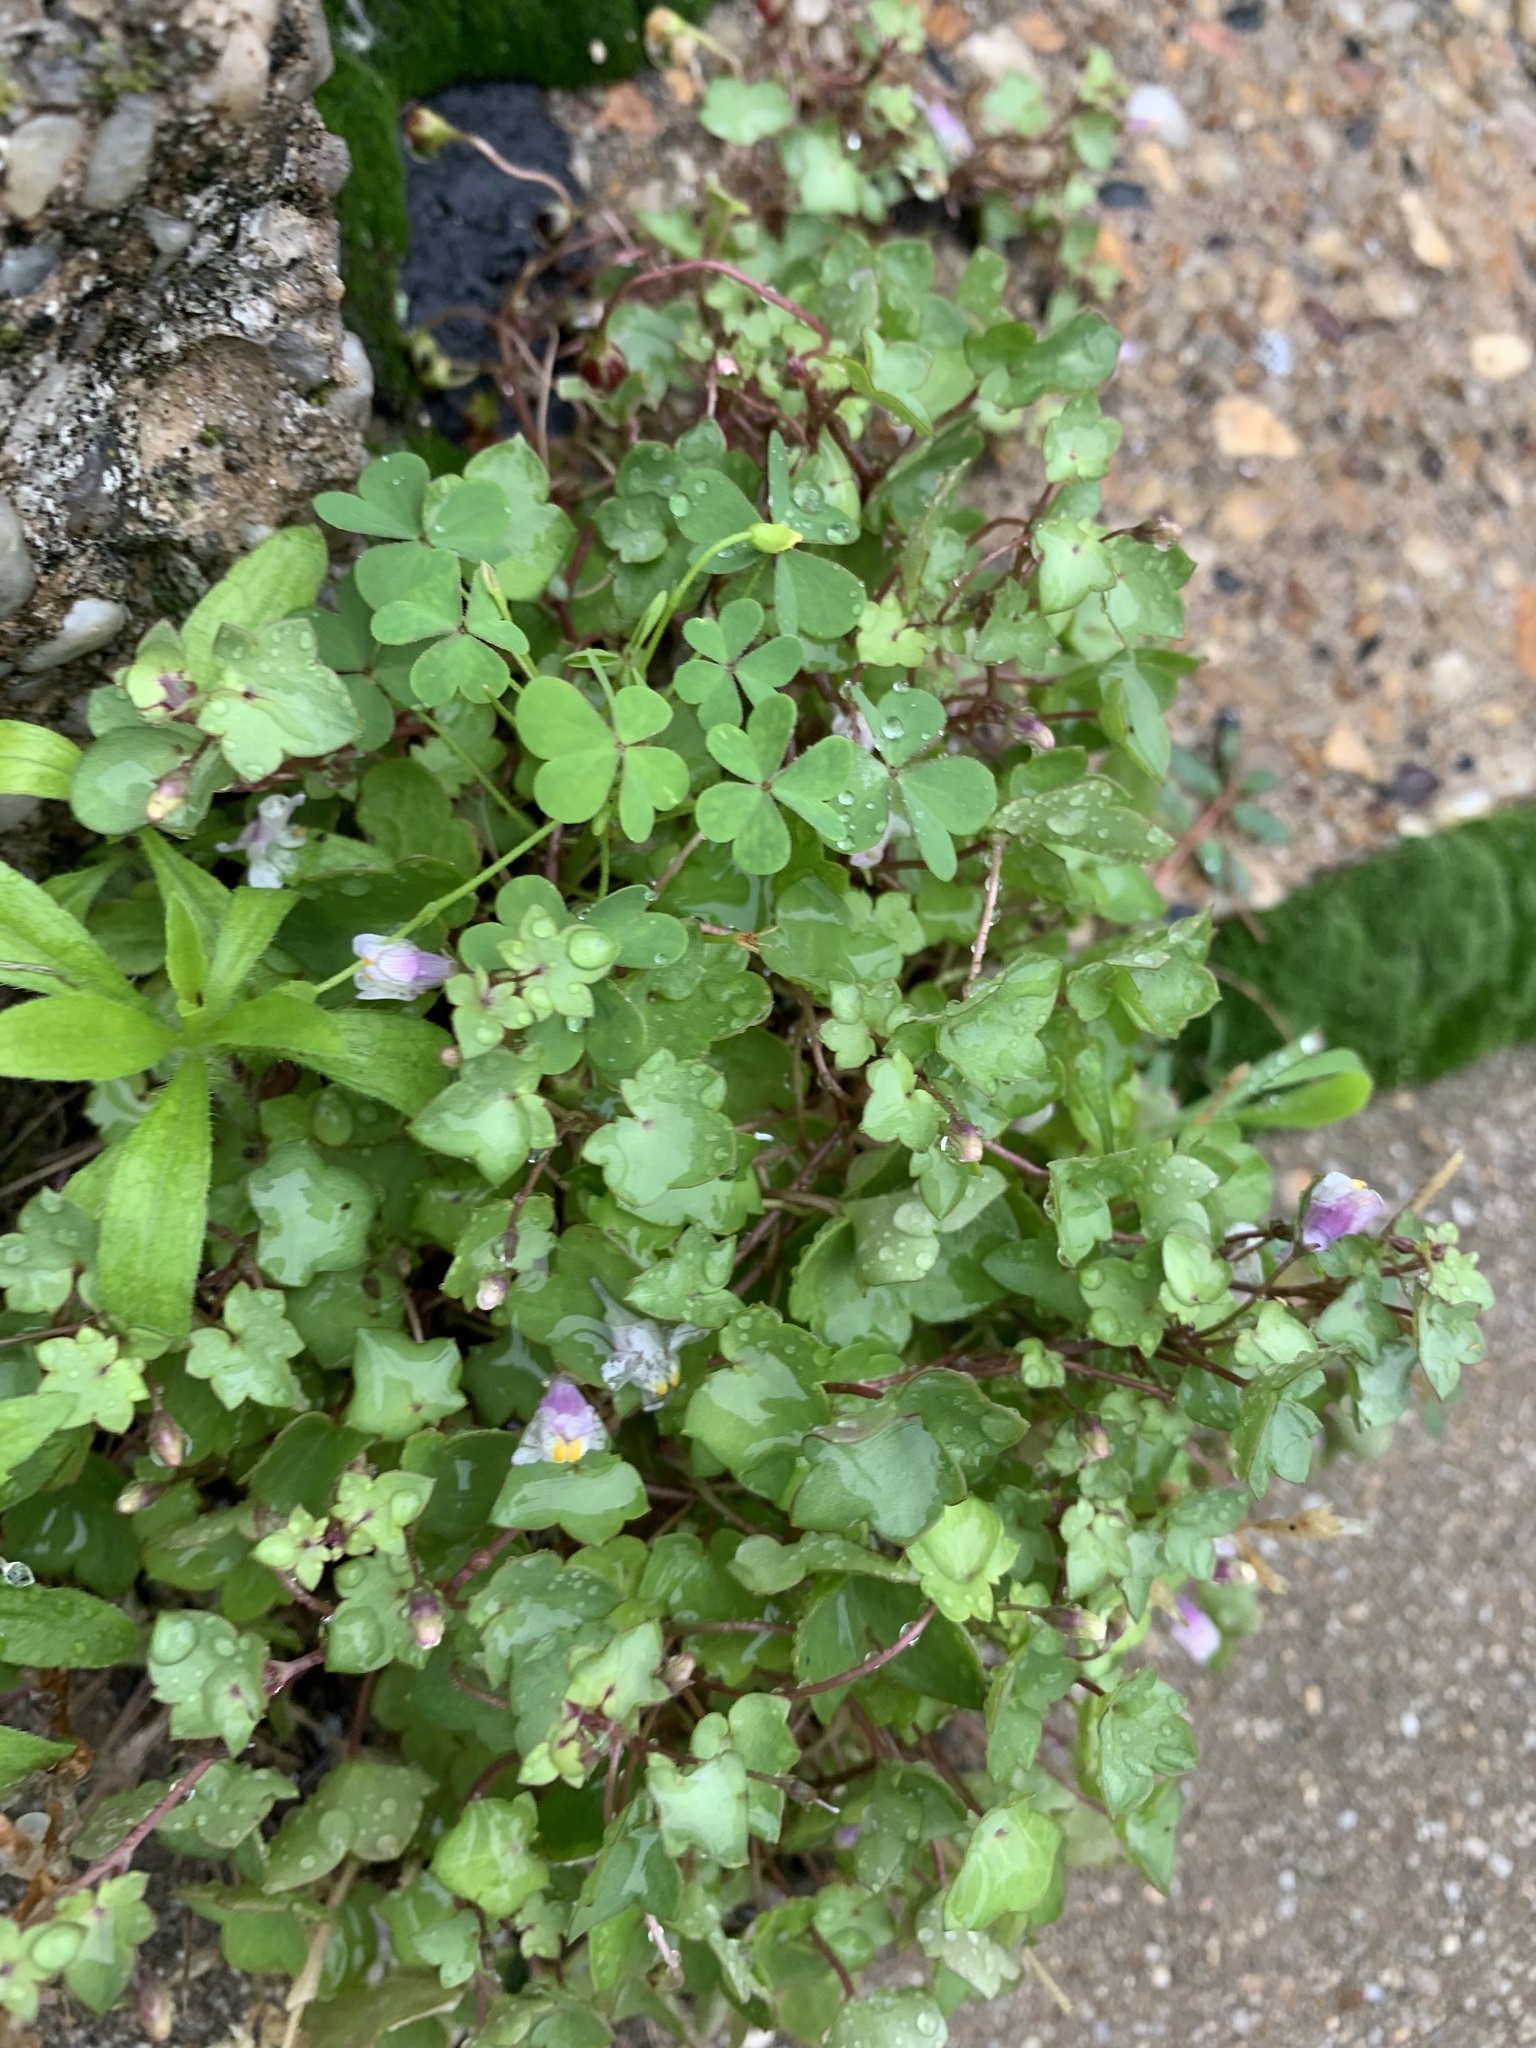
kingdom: Plantae
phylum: Tracheophyta
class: Magnoliopsida
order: Lamiales
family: Plantaginaceae
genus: Cymbalaria
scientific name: Cymbalaria muralis
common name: Ivy-leaved toadflax
